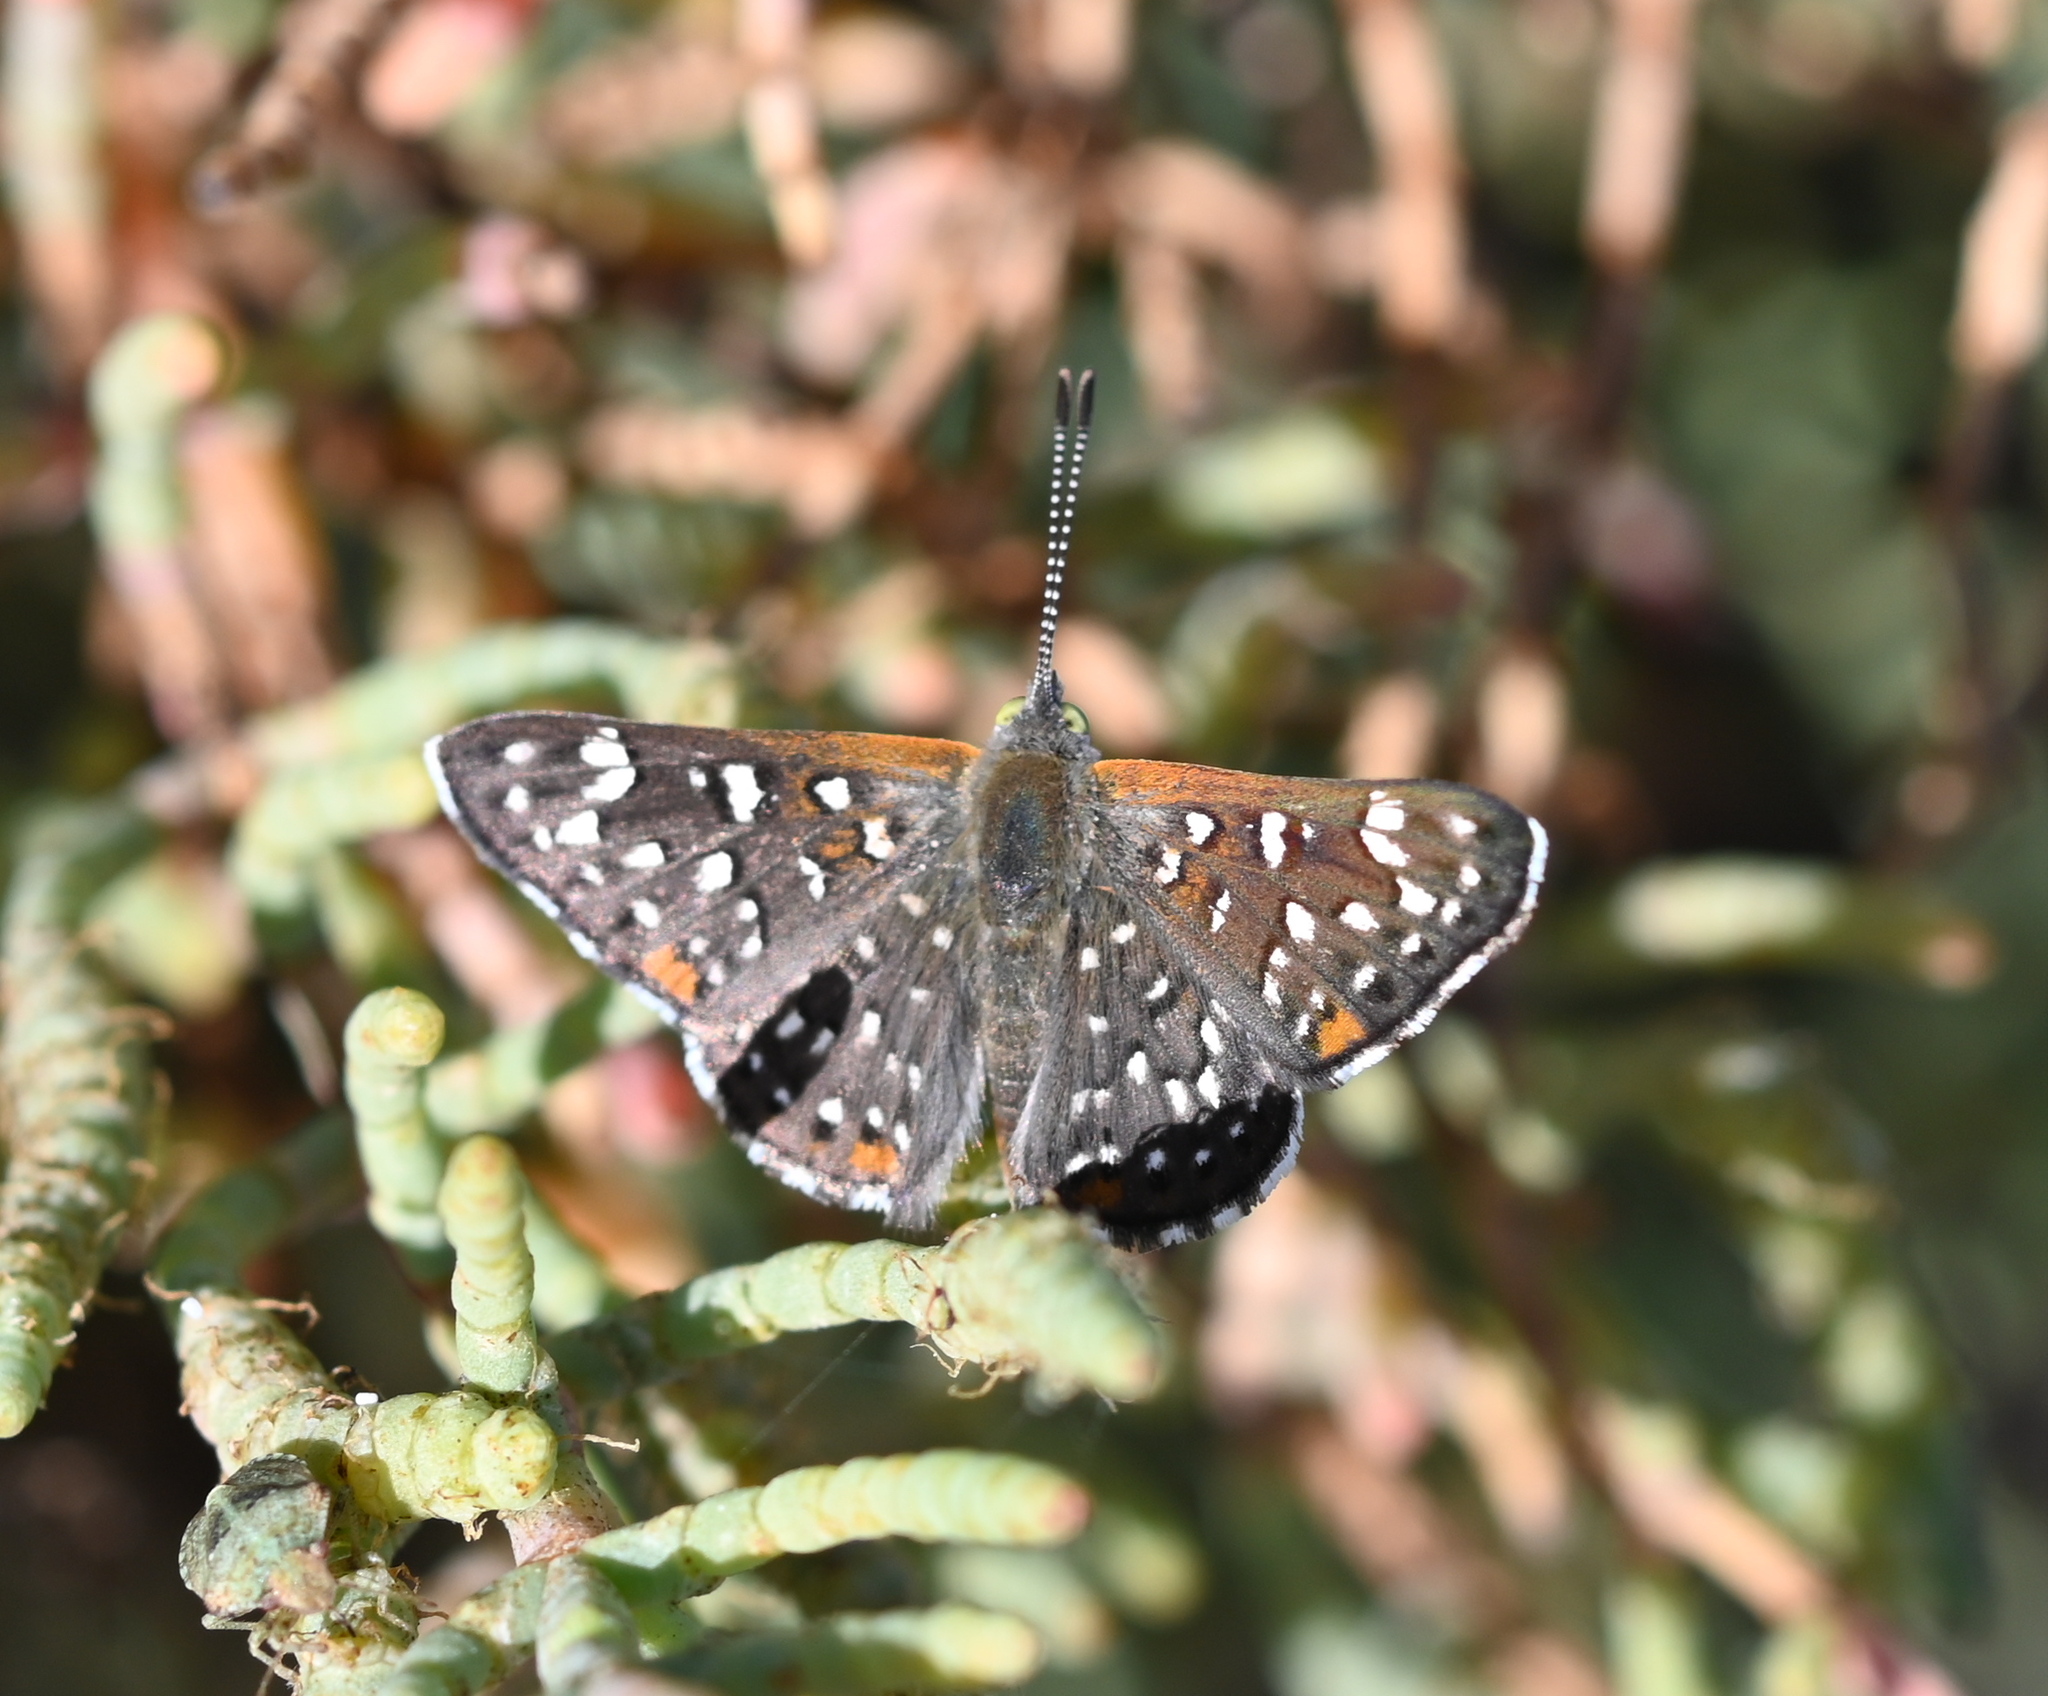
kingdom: Animalia
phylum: Arthropoda
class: Insecta
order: Lepidoptera
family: Riodinidae
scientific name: Riodinidae
